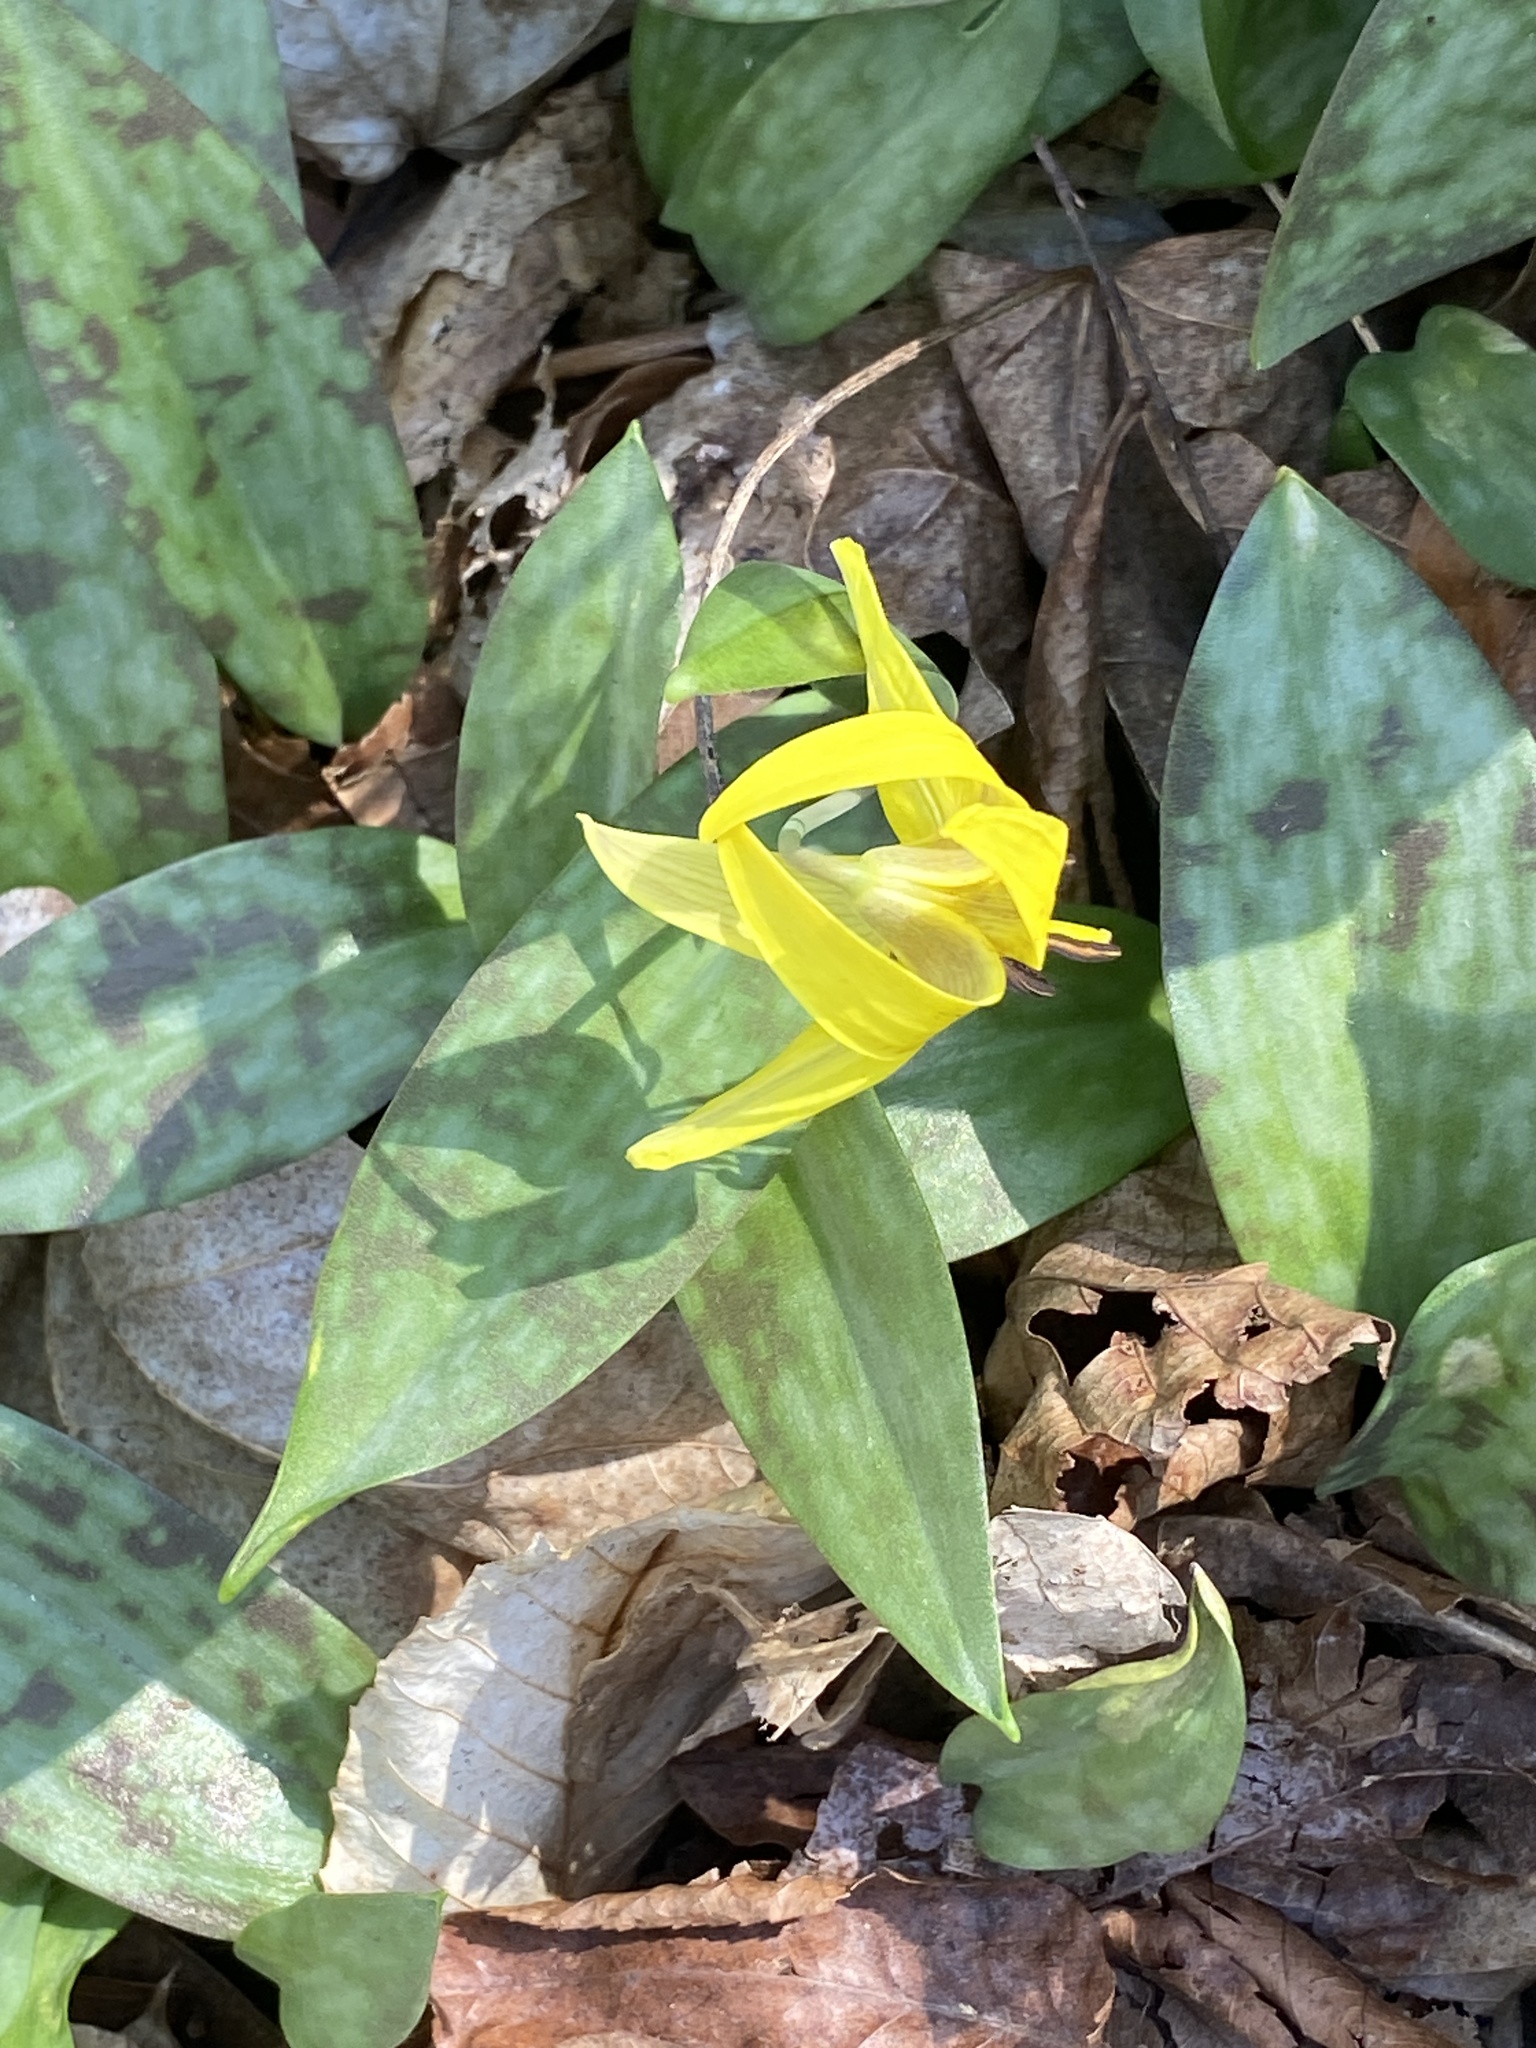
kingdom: Plantae
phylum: Tracheophyta
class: Liliopsida
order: Liliales
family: Liliaceae
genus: Erythronium
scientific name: Erythronium americanum
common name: Yellow adder's-tongue
